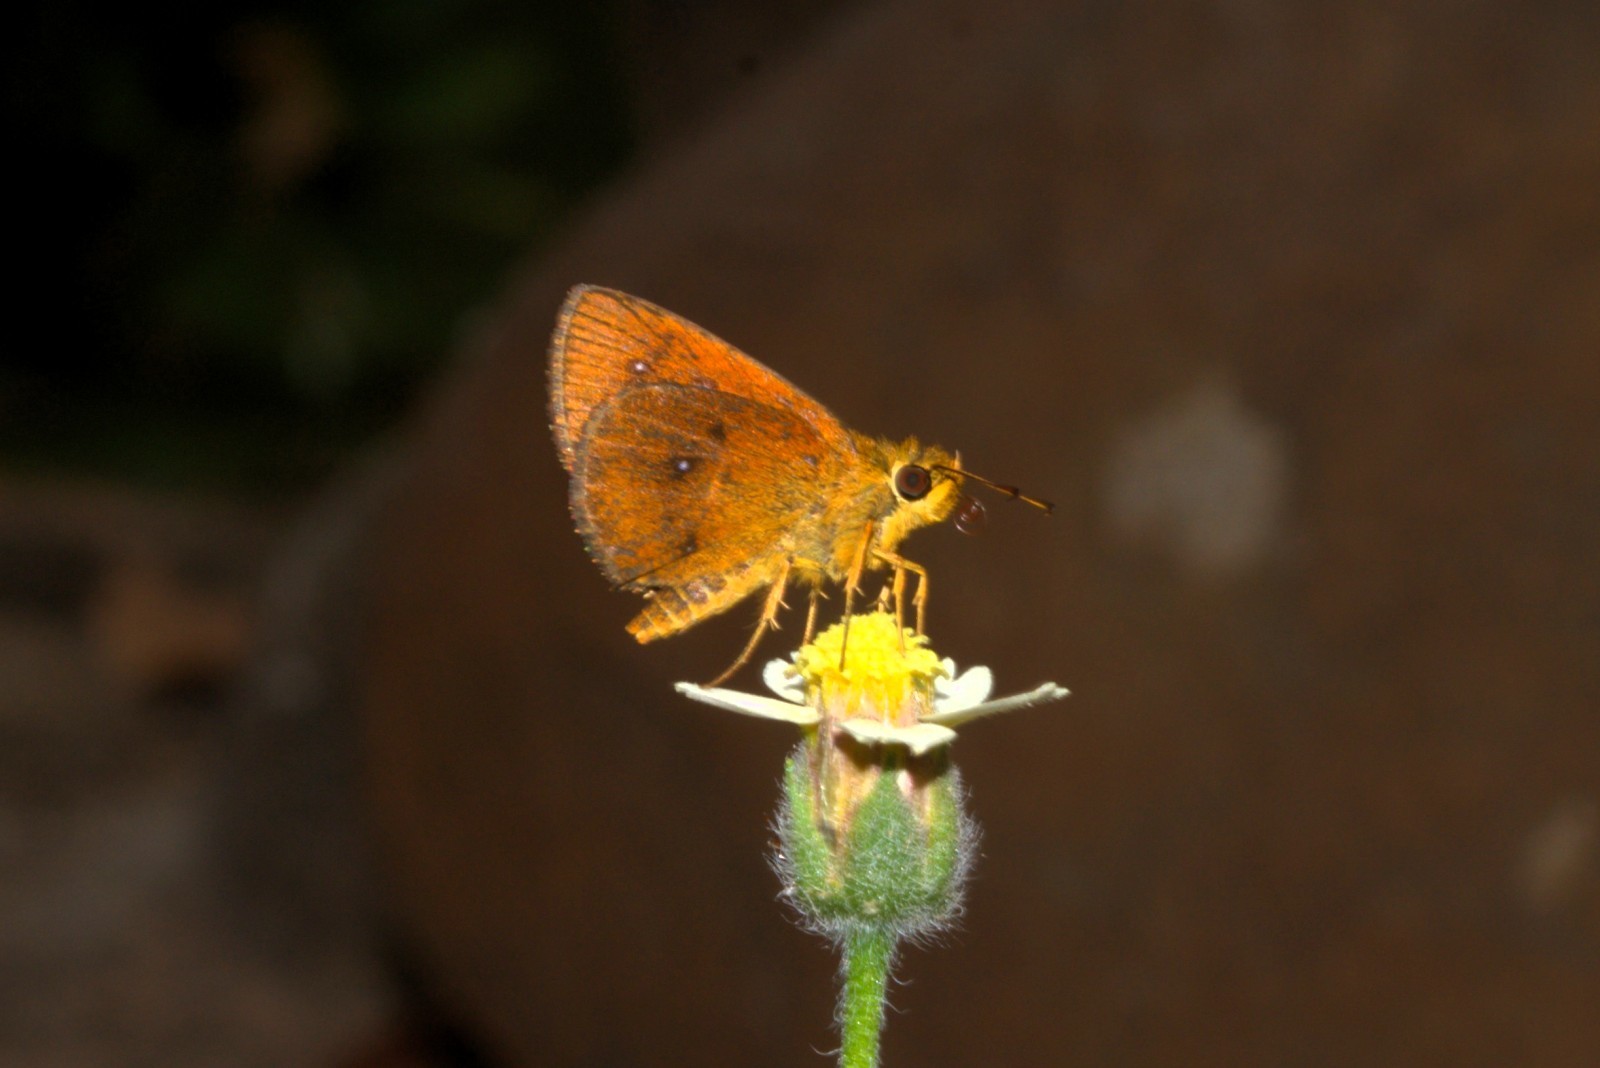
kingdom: Animalia
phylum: Arthropoda
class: Insecta
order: Lepidoptera
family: Hesperiidae
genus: Iambrix
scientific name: Iambrix salsala
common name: Chestnut bob
